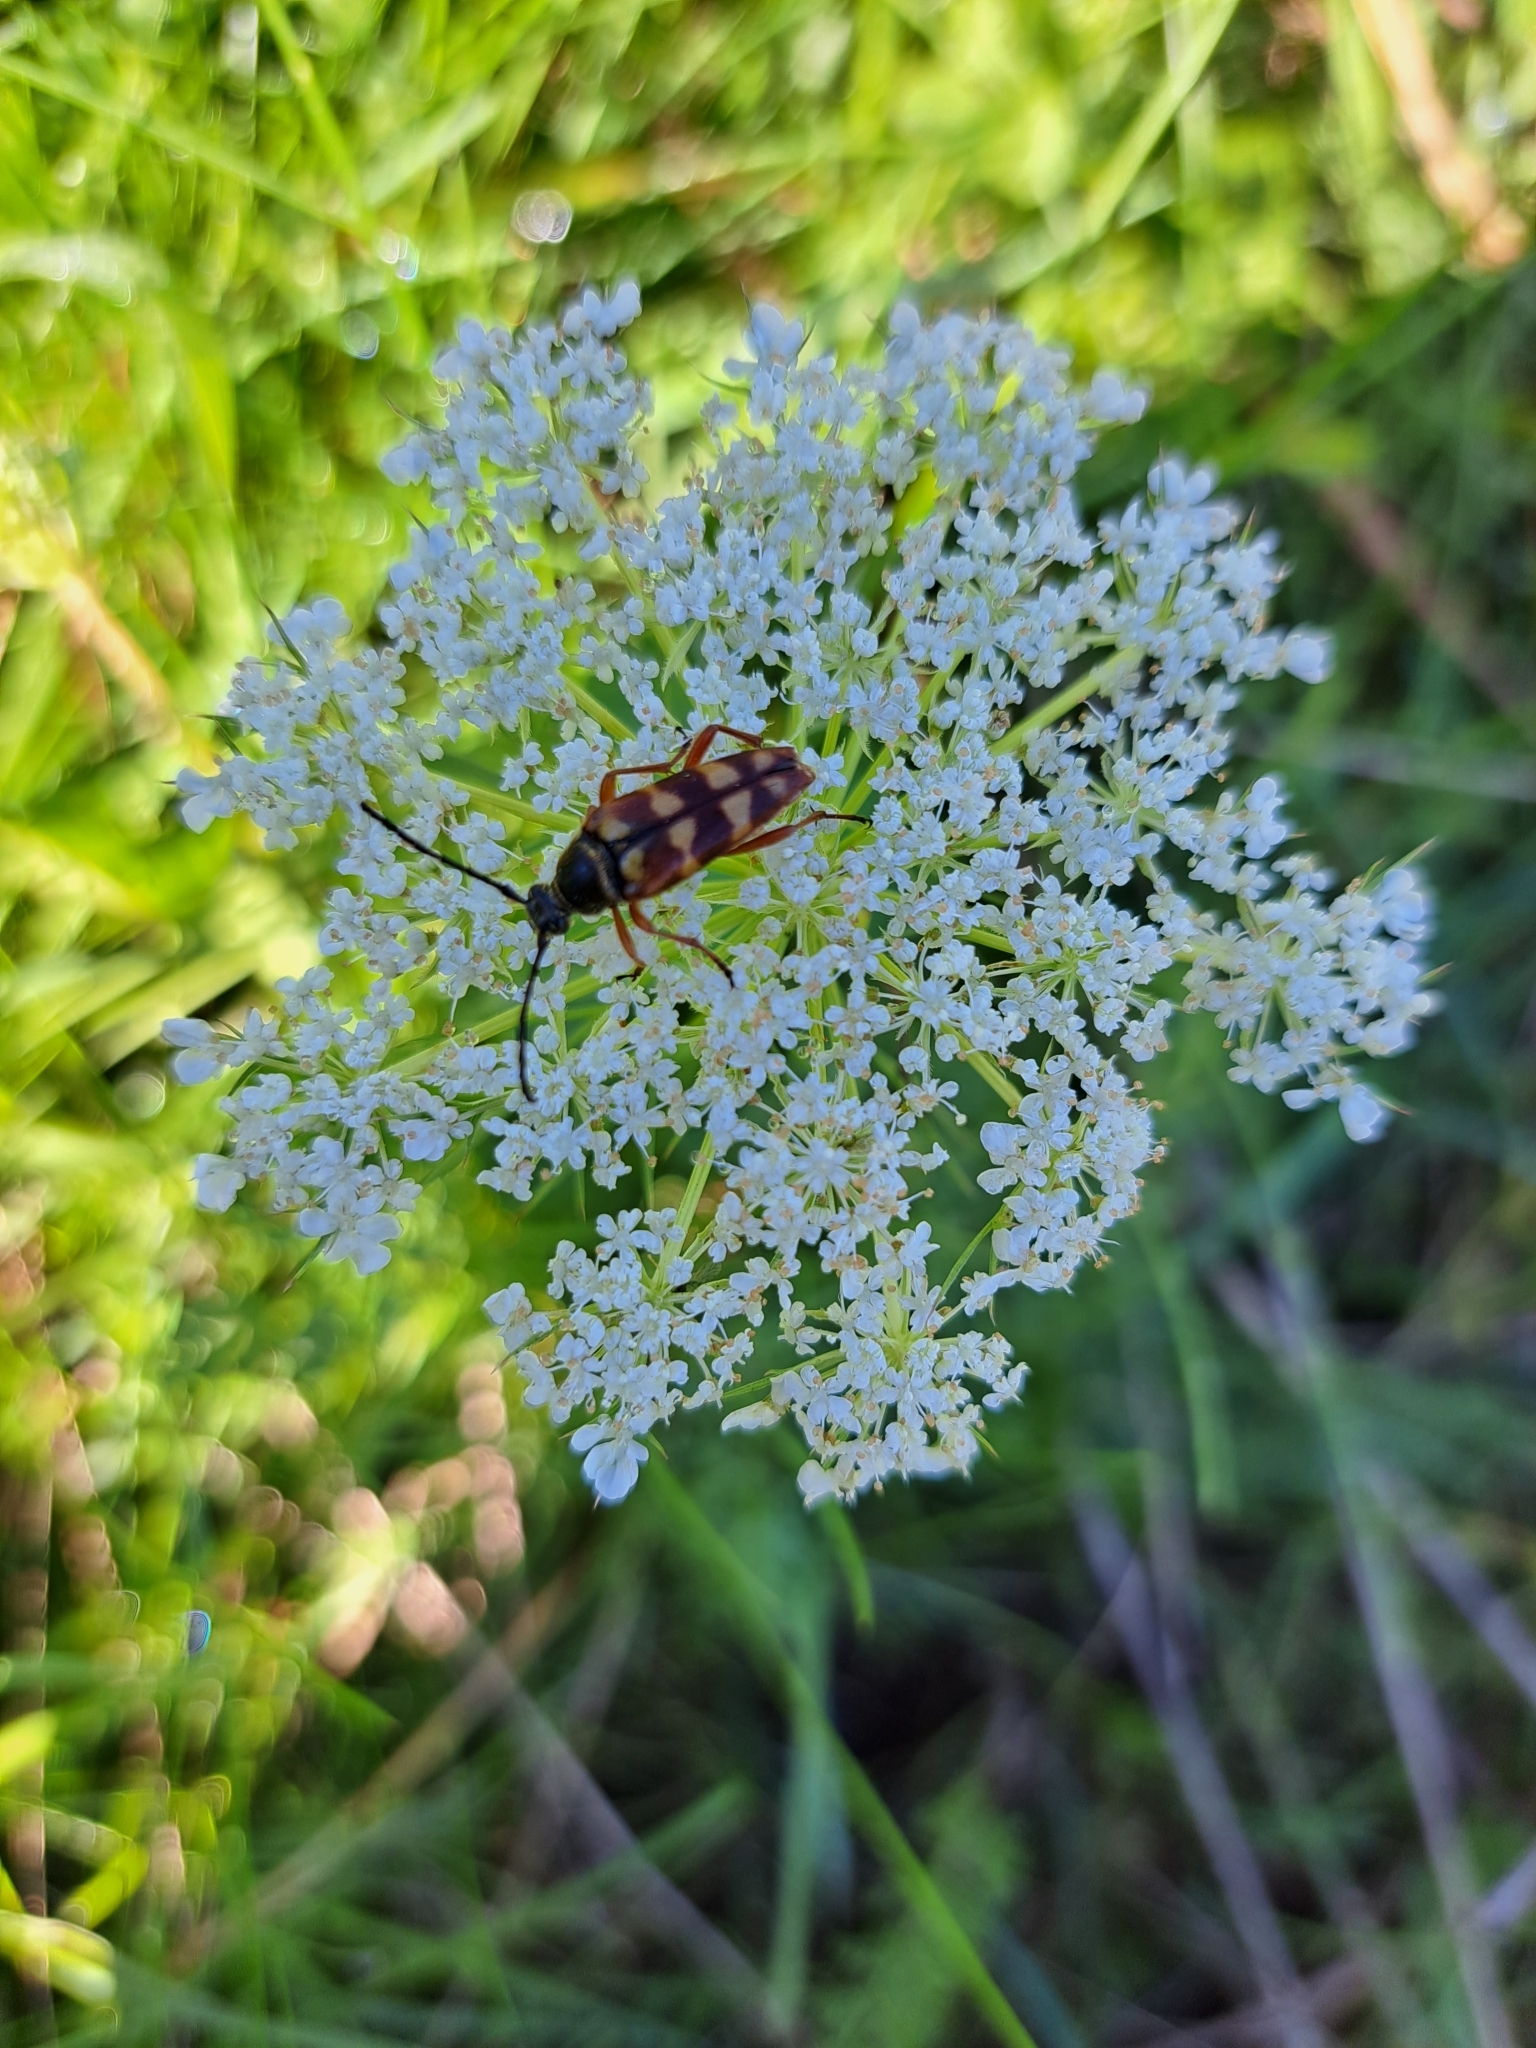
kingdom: Animalia
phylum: Arthropoda
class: Insecta
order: Coleoptera
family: Cerambycidae
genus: Typocerus
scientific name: Typocerus velutinus
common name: Banded longhorn beetle
